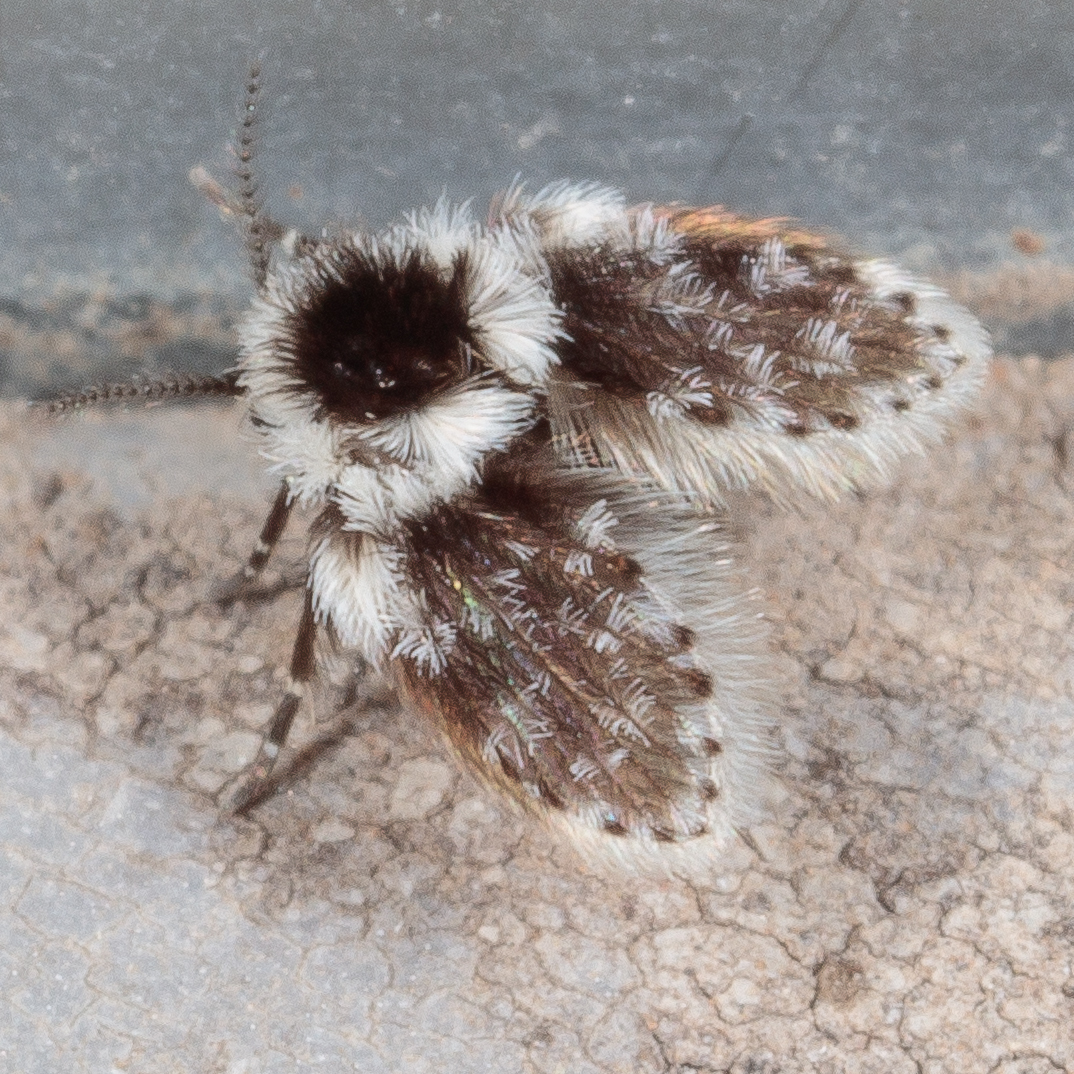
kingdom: Animalia
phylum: Arthropoda
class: Insecta
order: Diptera
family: Psychodidae
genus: Lepiseodina
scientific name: Lepiseodina
